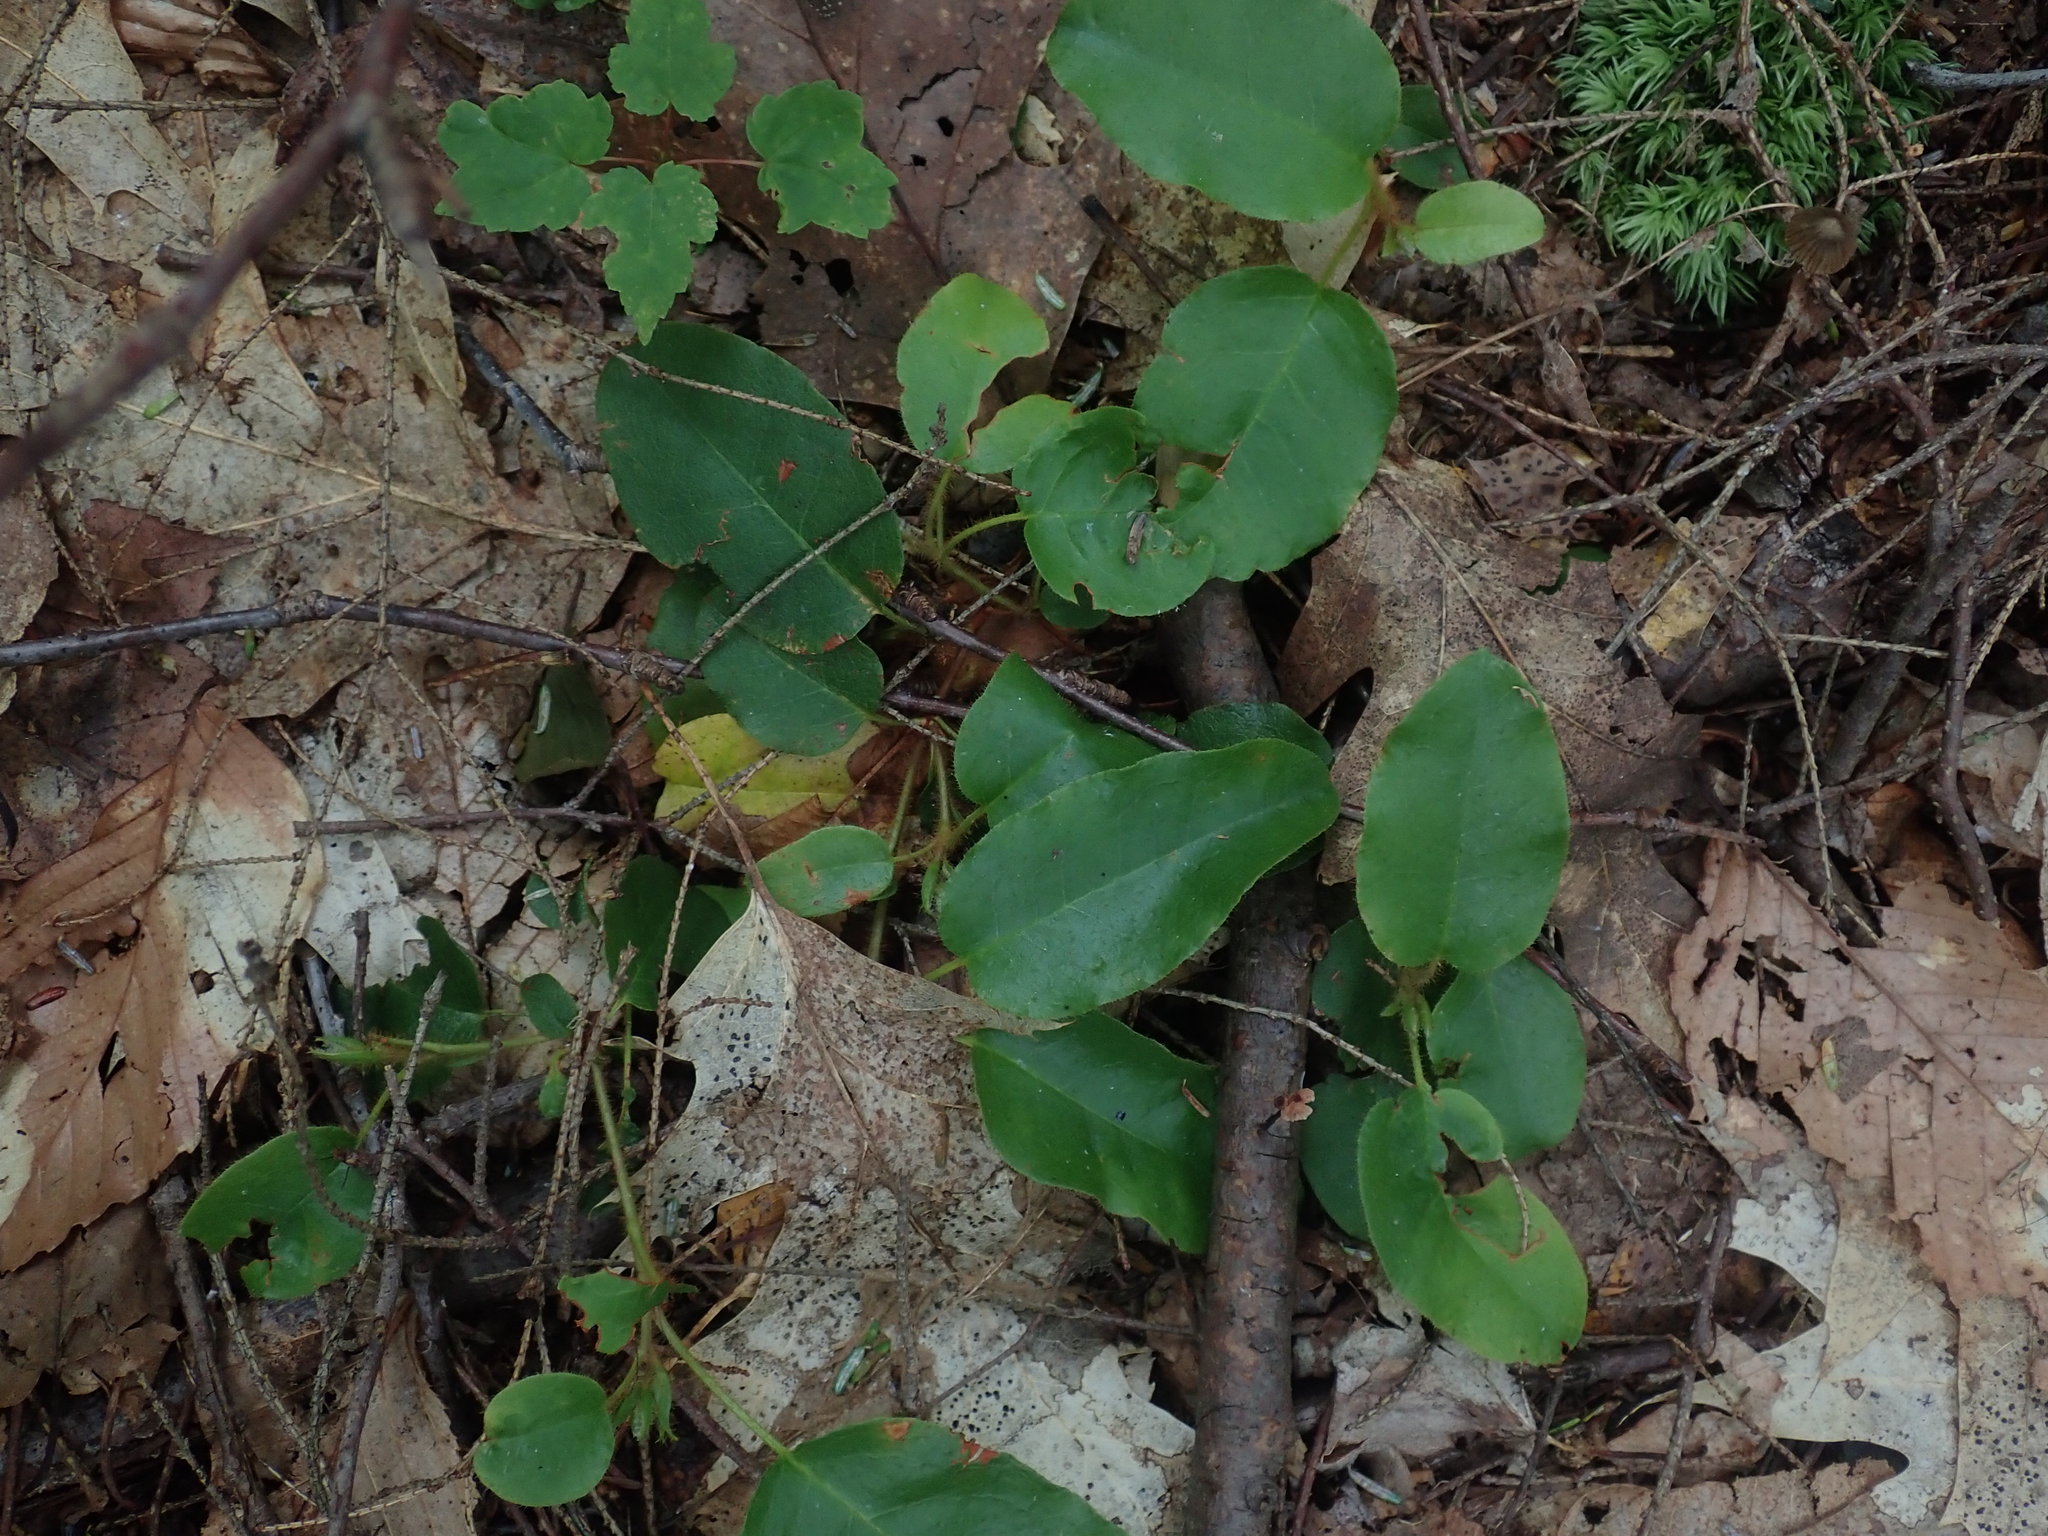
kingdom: Plantae
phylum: Tracheophyta
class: Magnoliopsida
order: Ericales
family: Ericaceae
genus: Epigaea
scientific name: Epigaea repens
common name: Gravelroot
